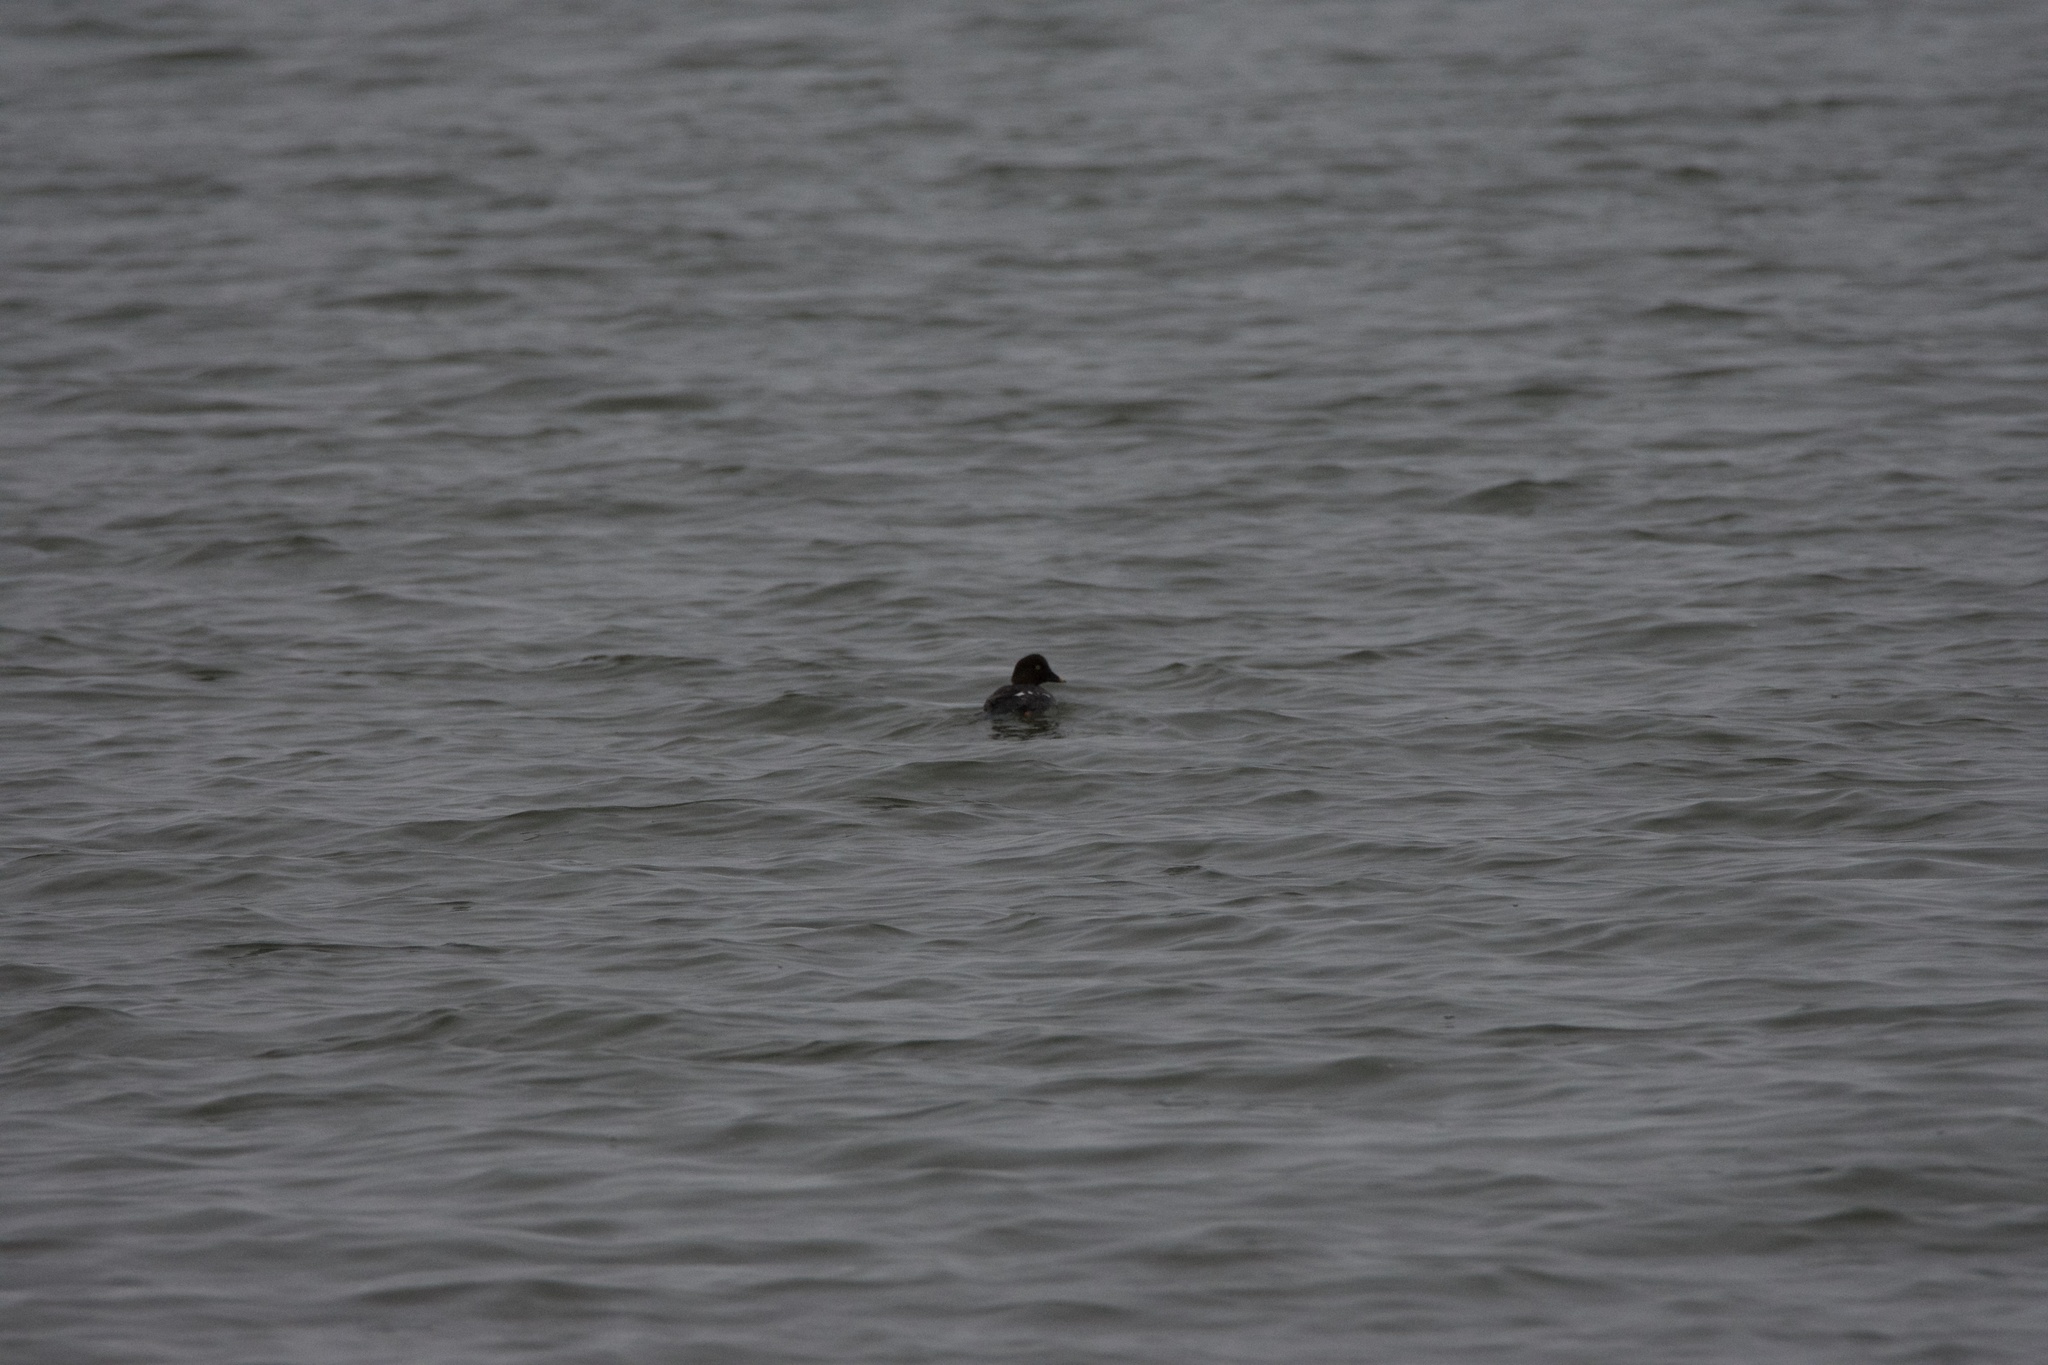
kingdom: Animalia
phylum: Chordata
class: Aves
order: Anseriformes
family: Anatidae
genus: Bucephala
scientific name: Bucephala clangula
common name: Common goldeneye
